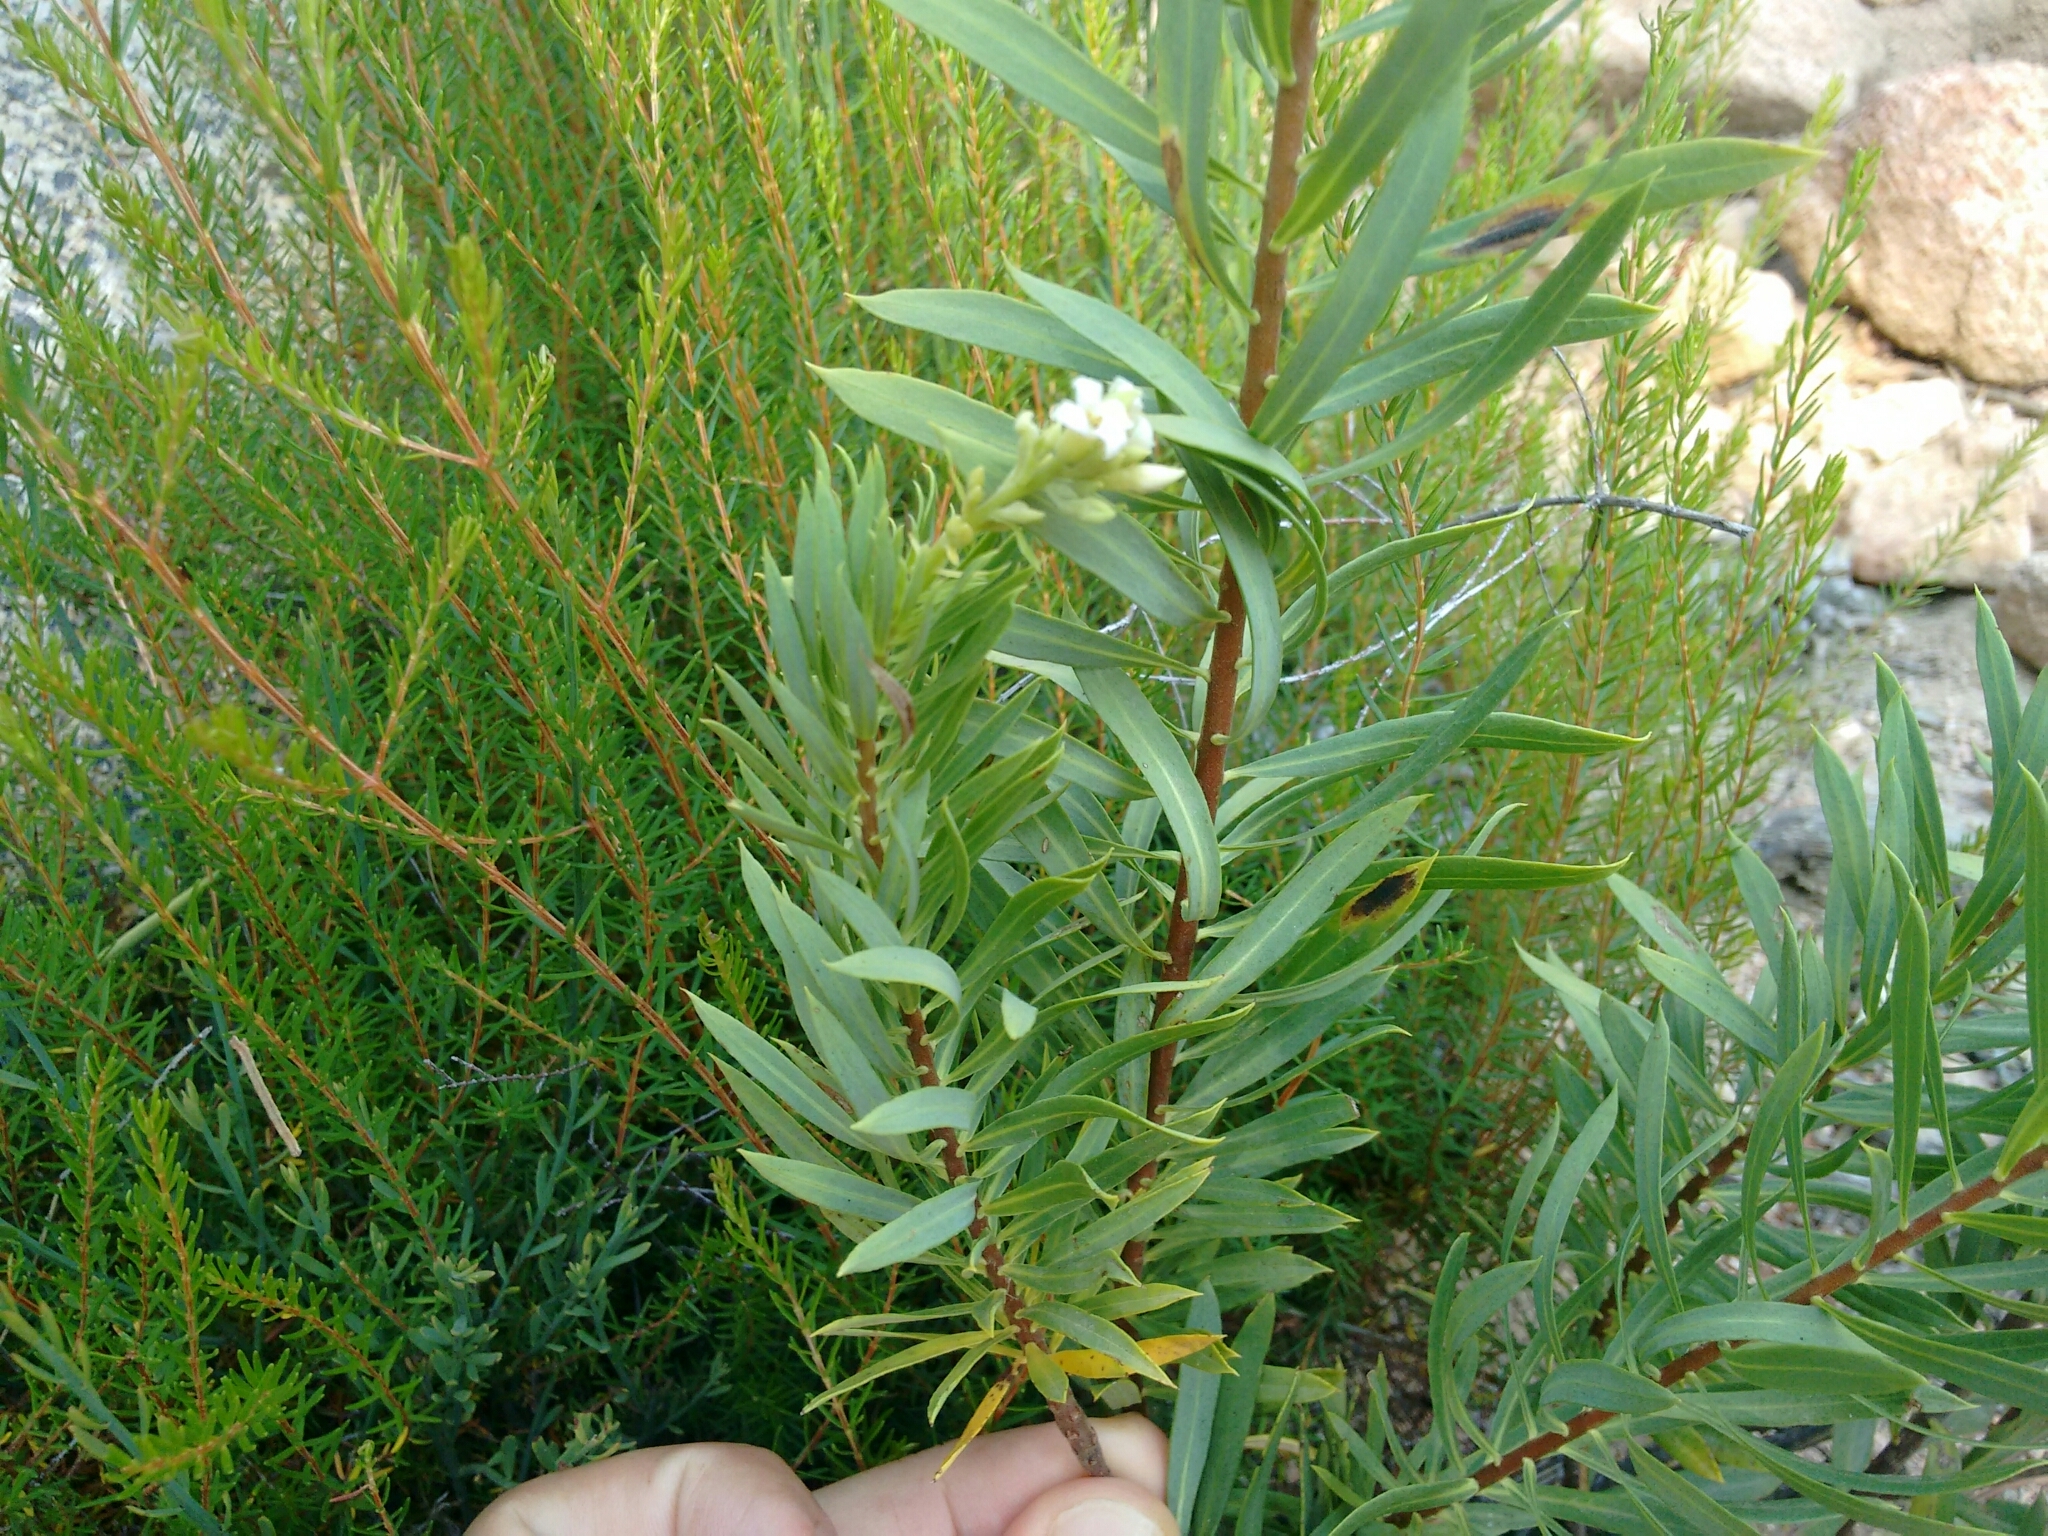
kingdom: Plantae
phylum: Tracheophyta
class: Magnoliopsida
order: Malvales
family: Thymelaeaceae
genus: Daphne
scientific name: Daphne gnidium
